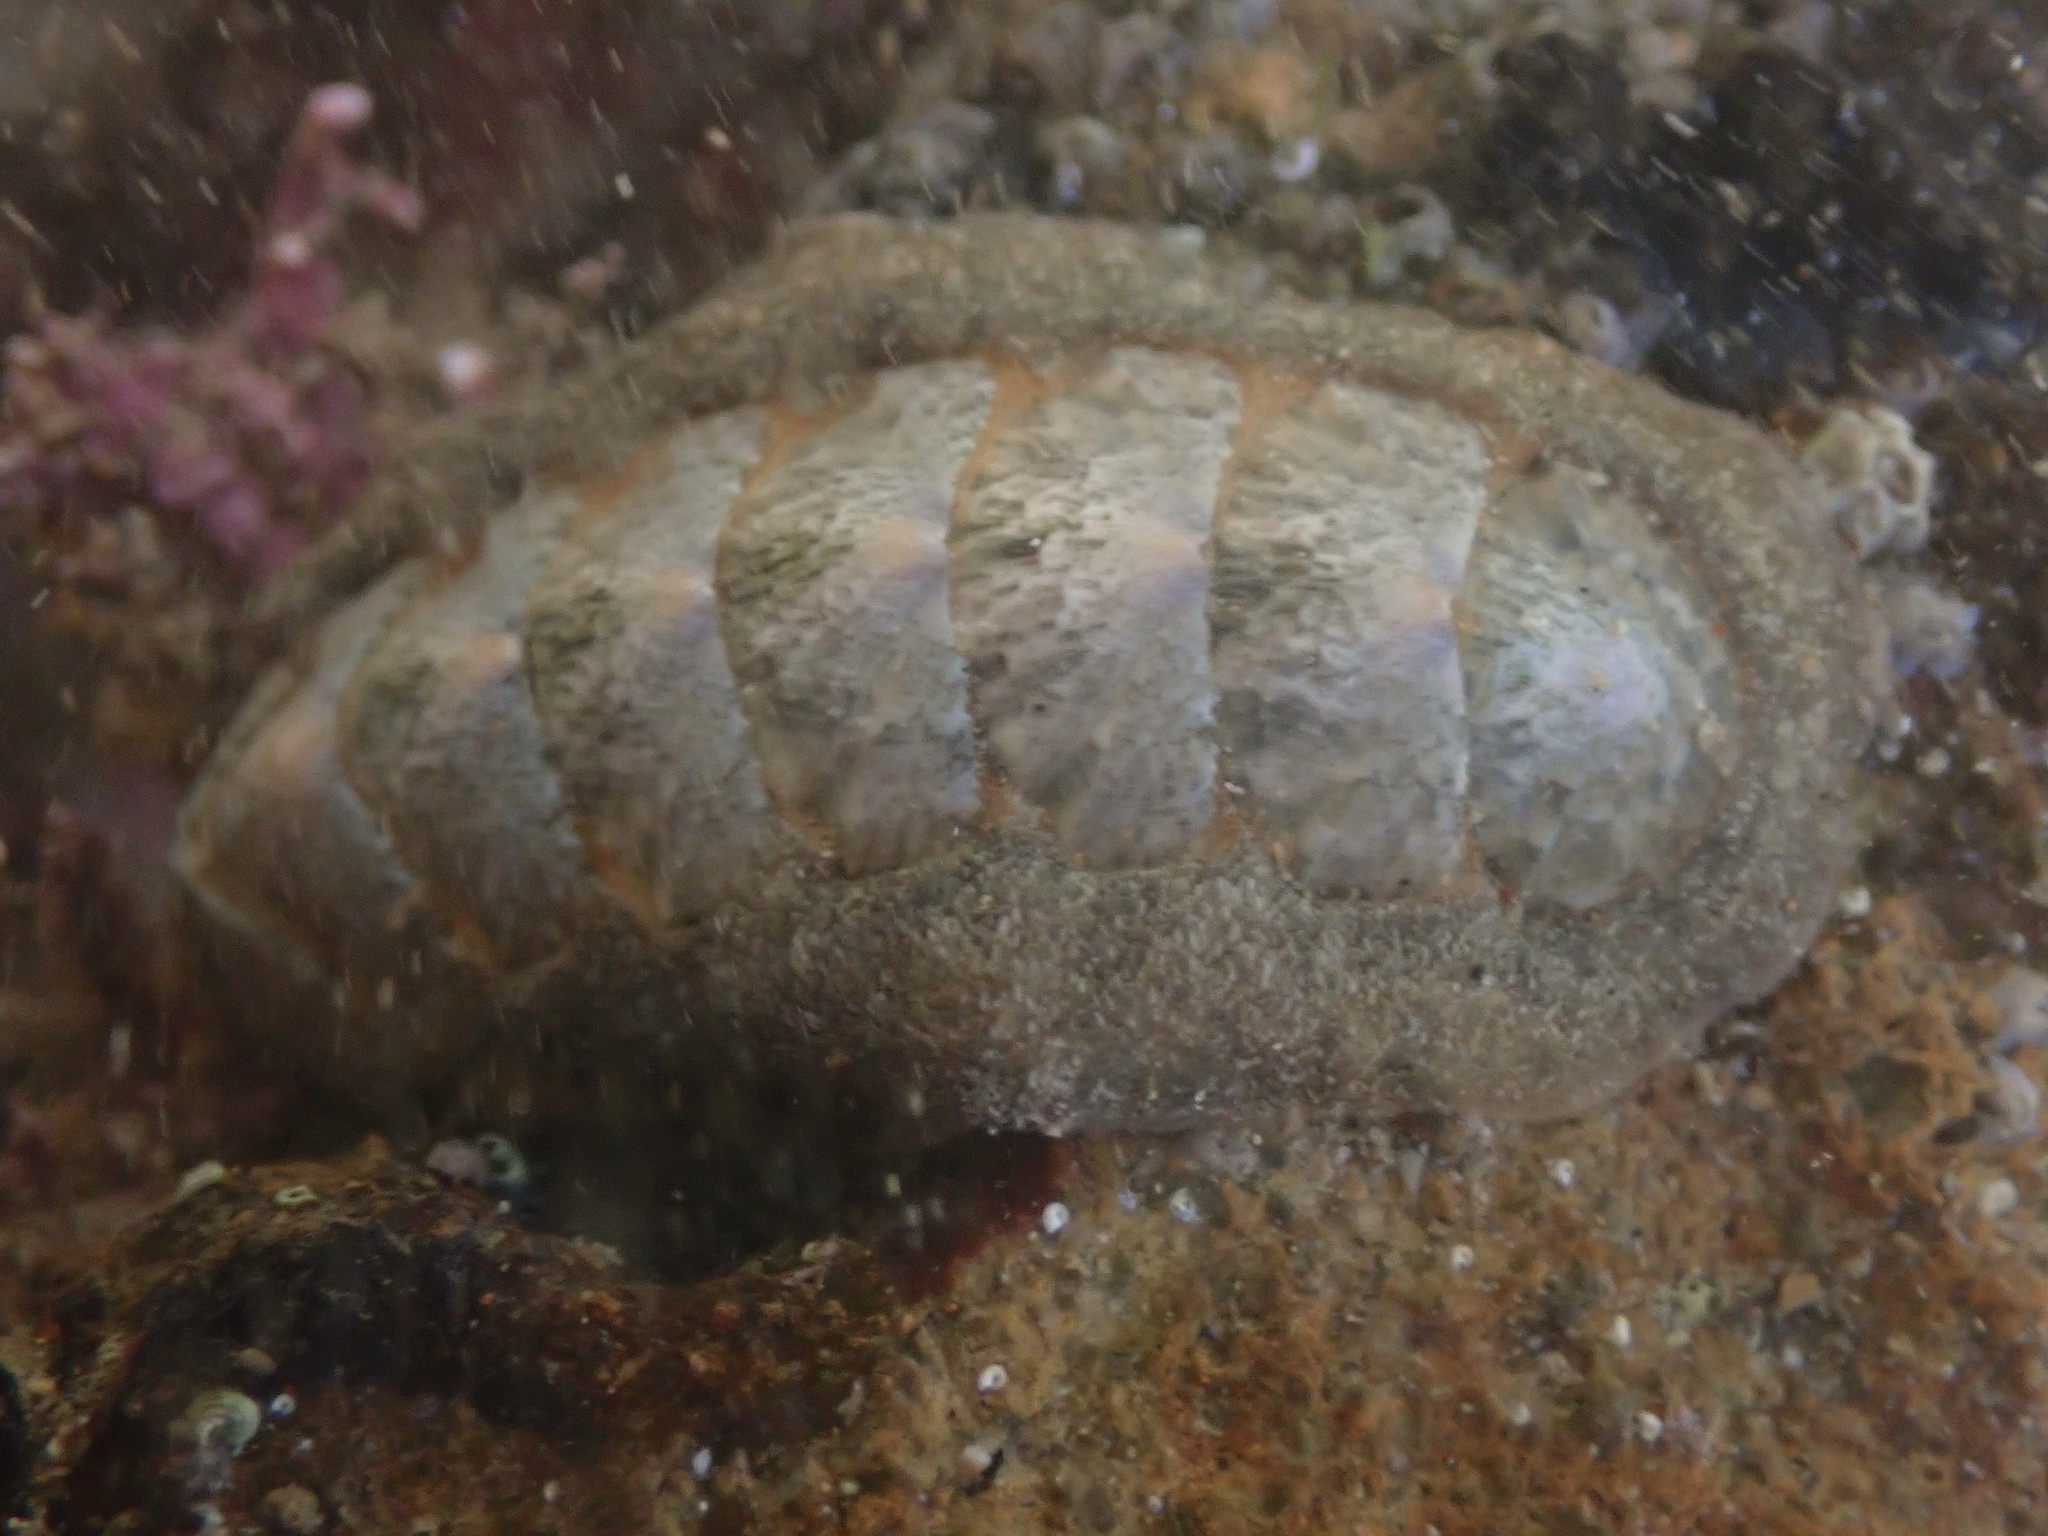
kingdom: Animalia
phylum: Mollusca
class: Polyplacophora
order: Chitonida
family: Ischnochitonidae
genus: Stenoplax
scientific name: Stenoplax conspicua
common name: Conspicuous chiton
